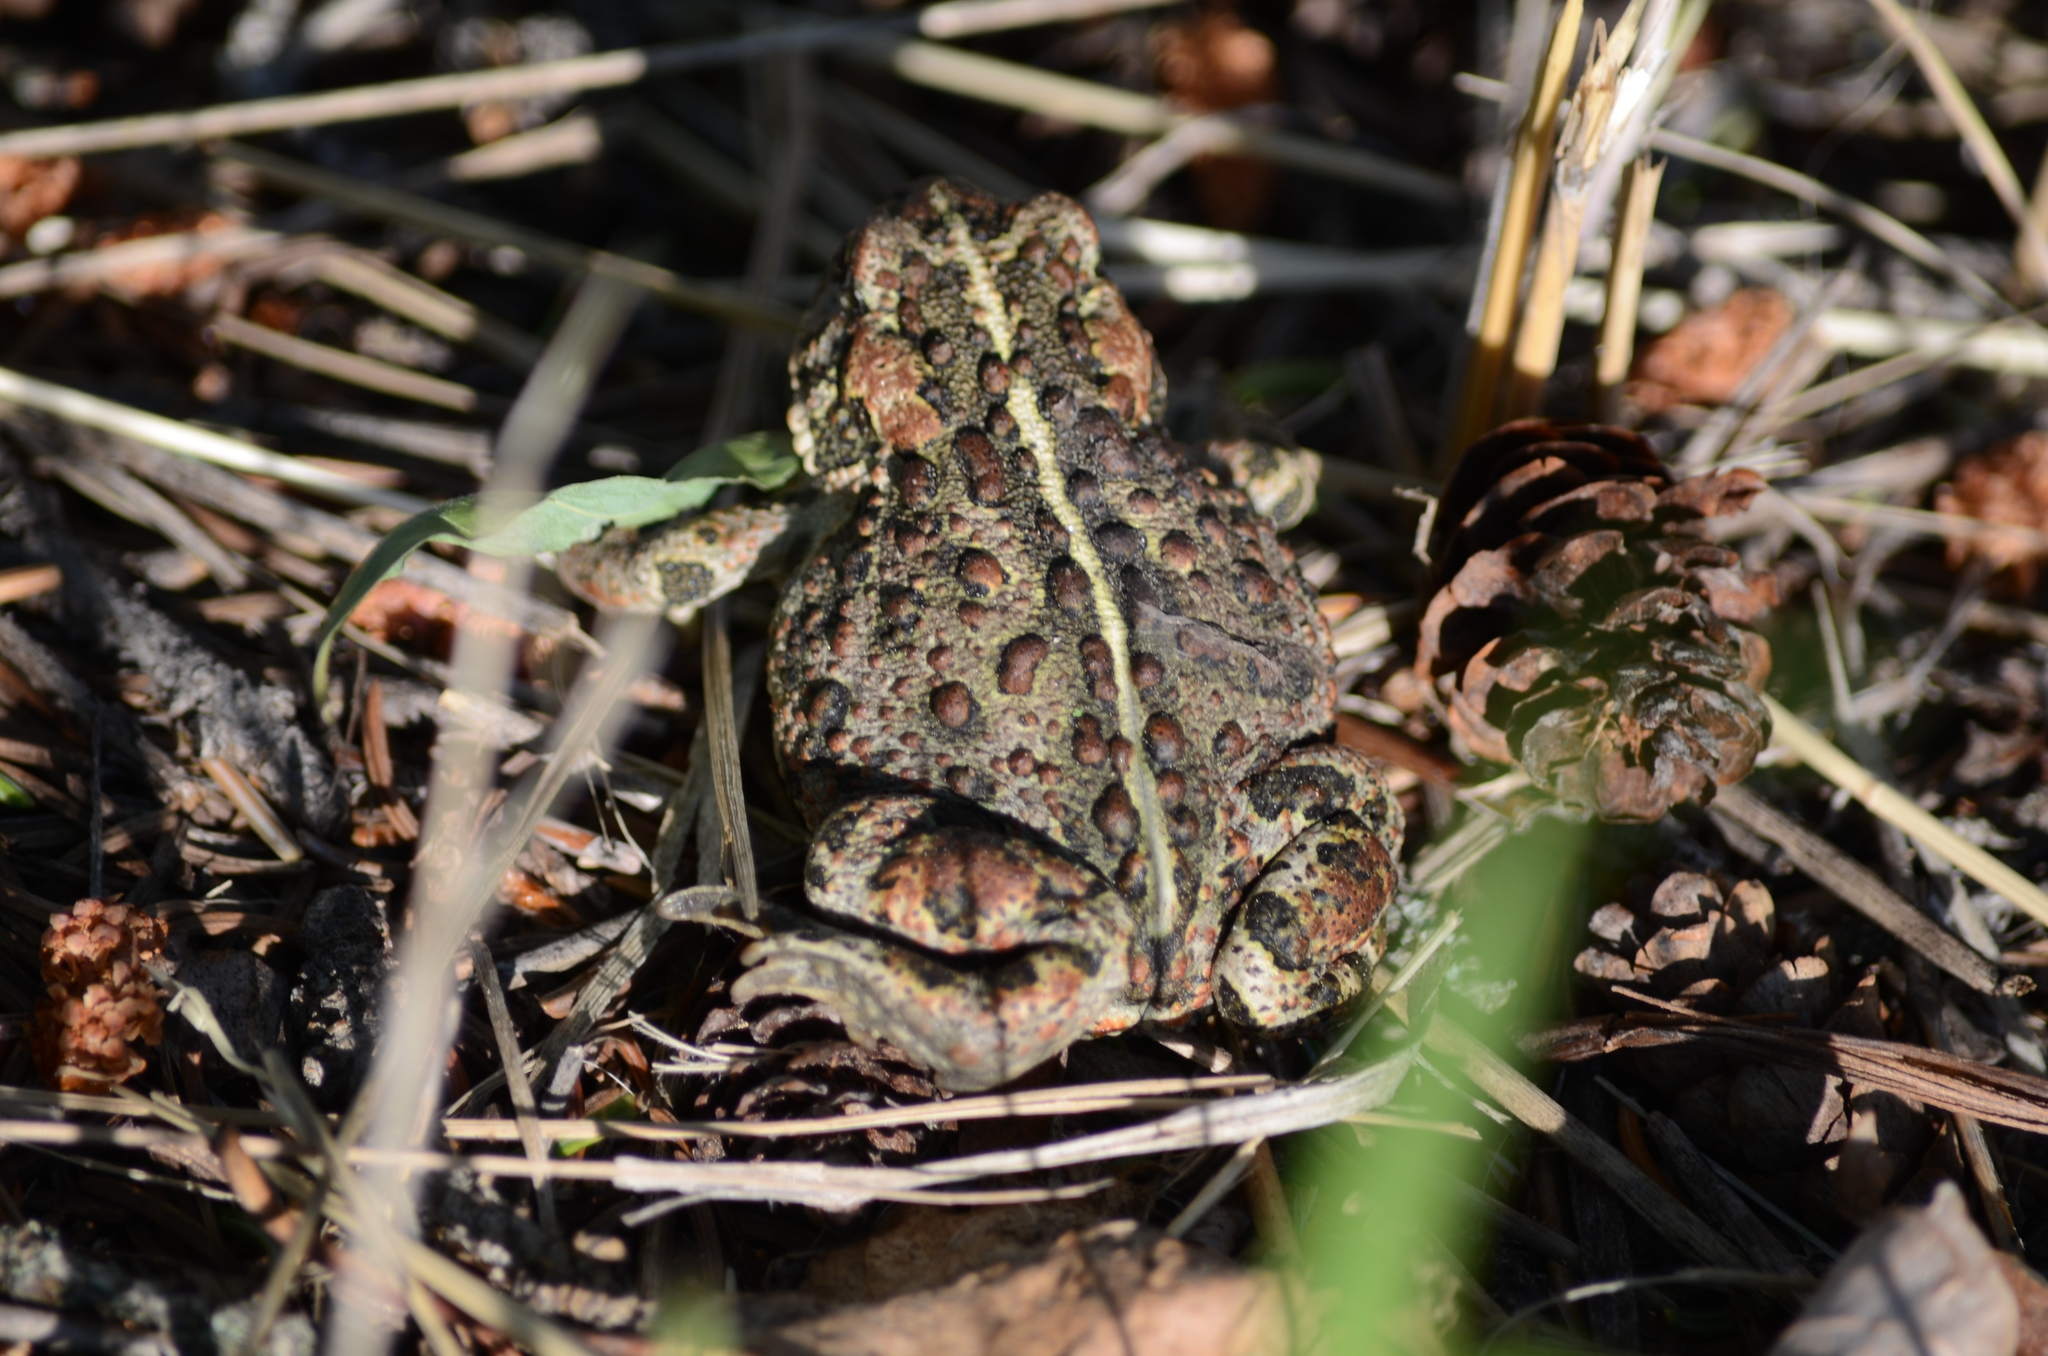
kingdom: Animalia
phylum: Chordata
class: Amphibia
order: Anura
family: Bufonidae
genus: Anaxyrus
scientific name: Anaxyrus boreas
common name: Western toad
